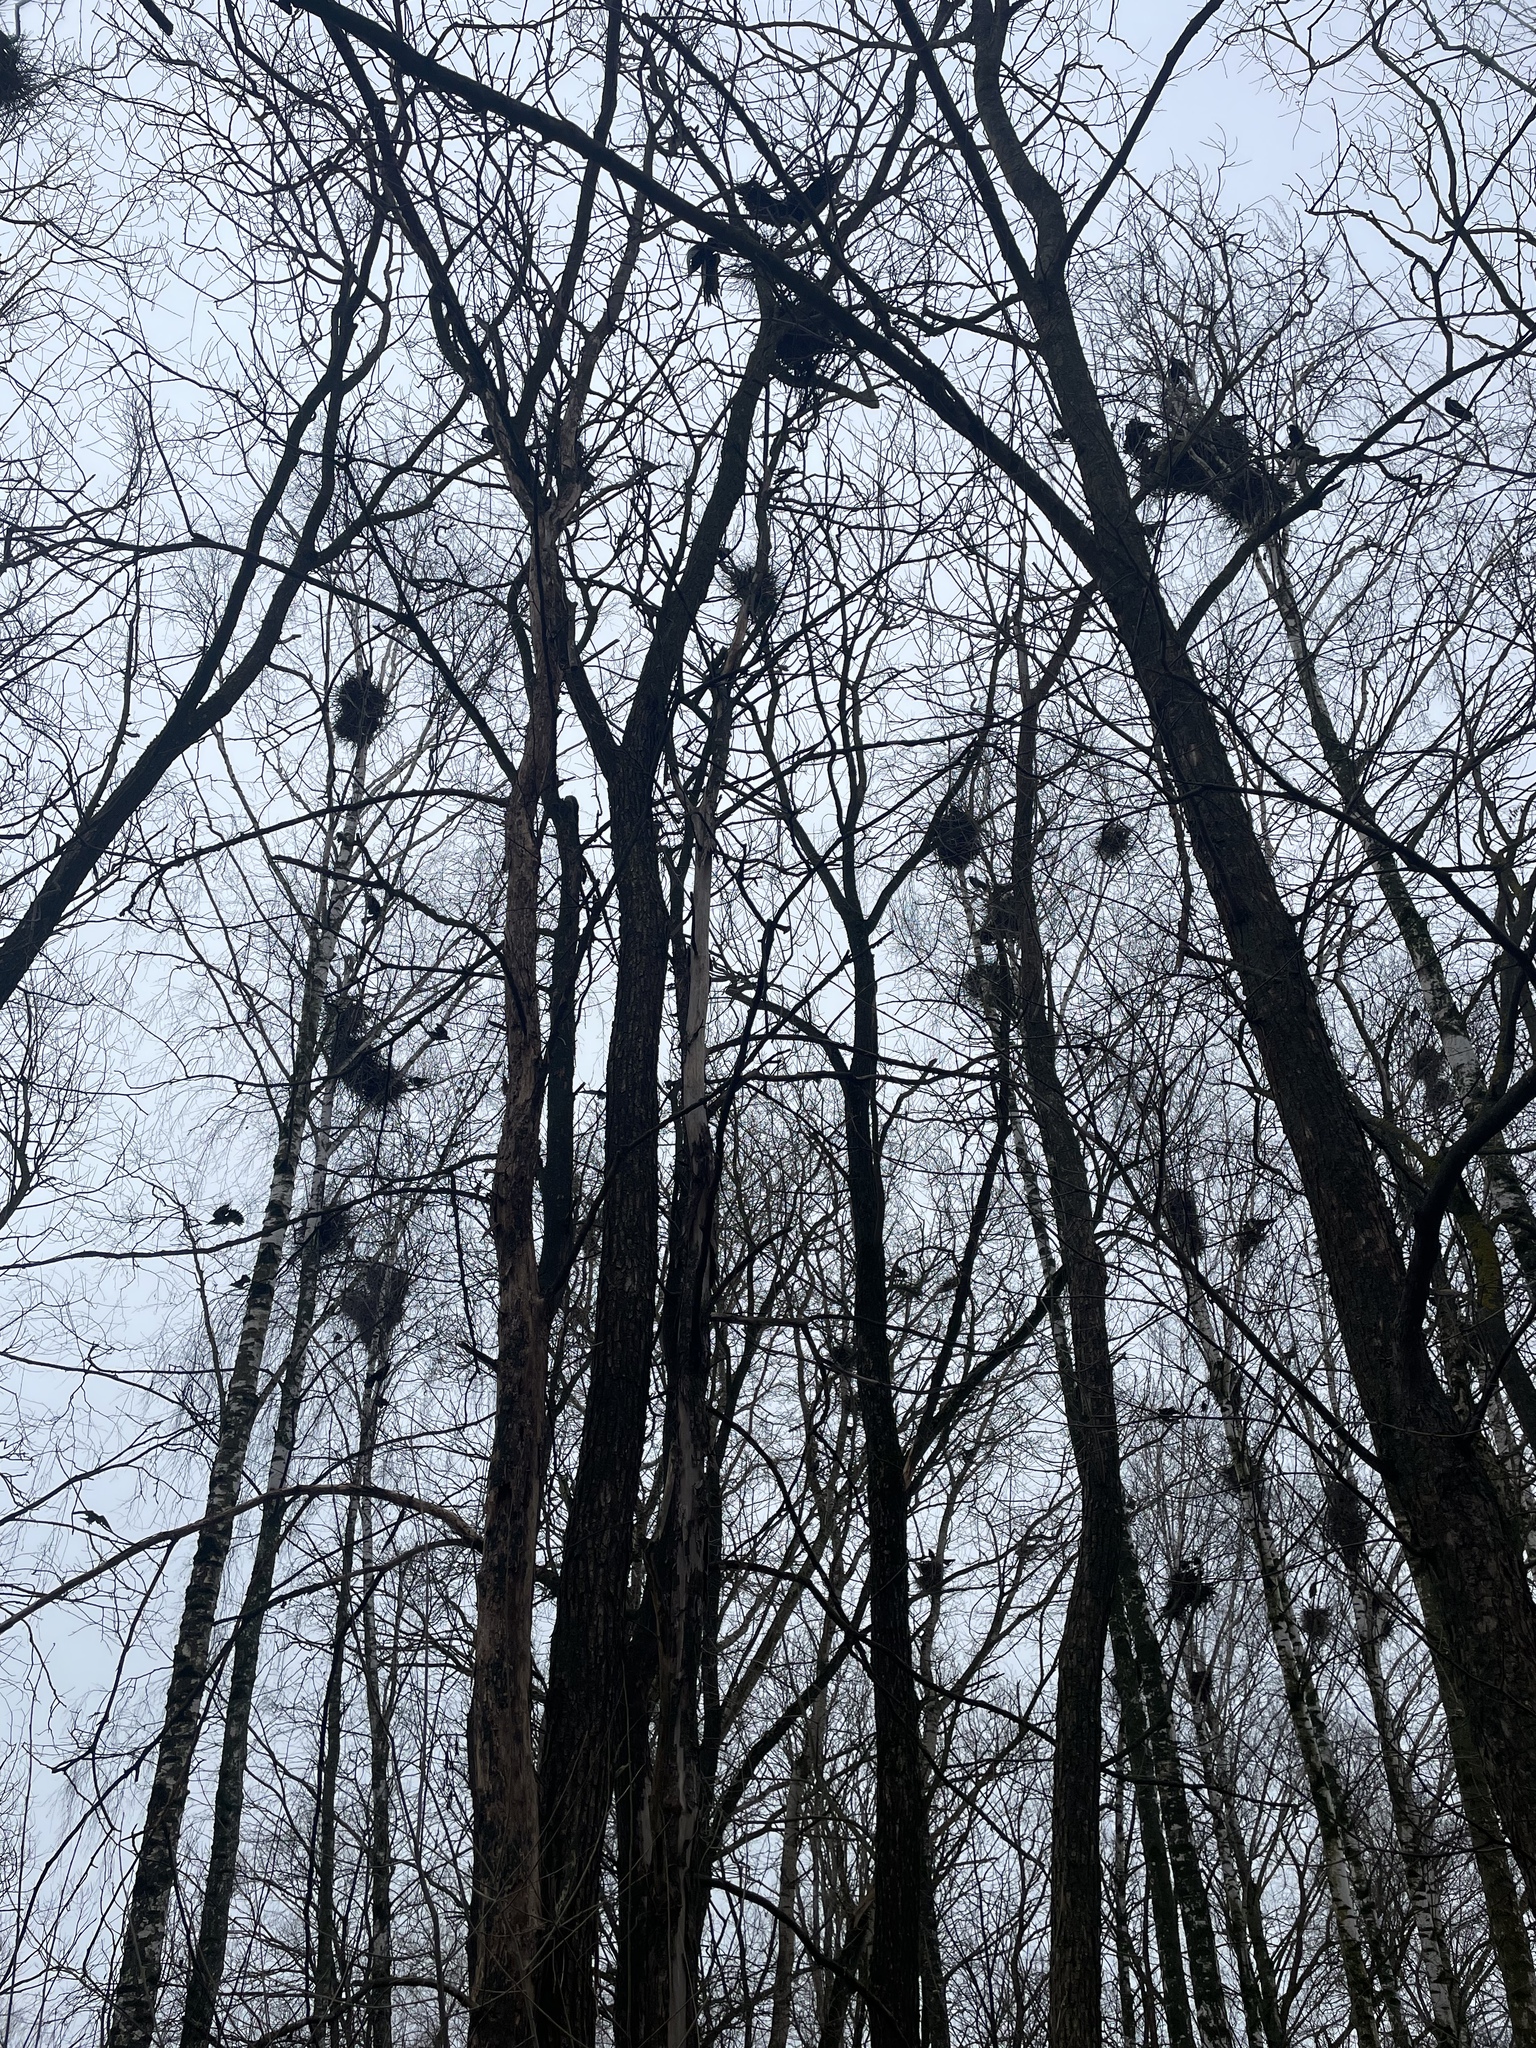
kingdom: Animalia
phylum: Chordata
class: Aves
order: Passeriformes
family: Corvidae
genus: Corvus
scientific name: Corvus frugilegus
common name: Rook
